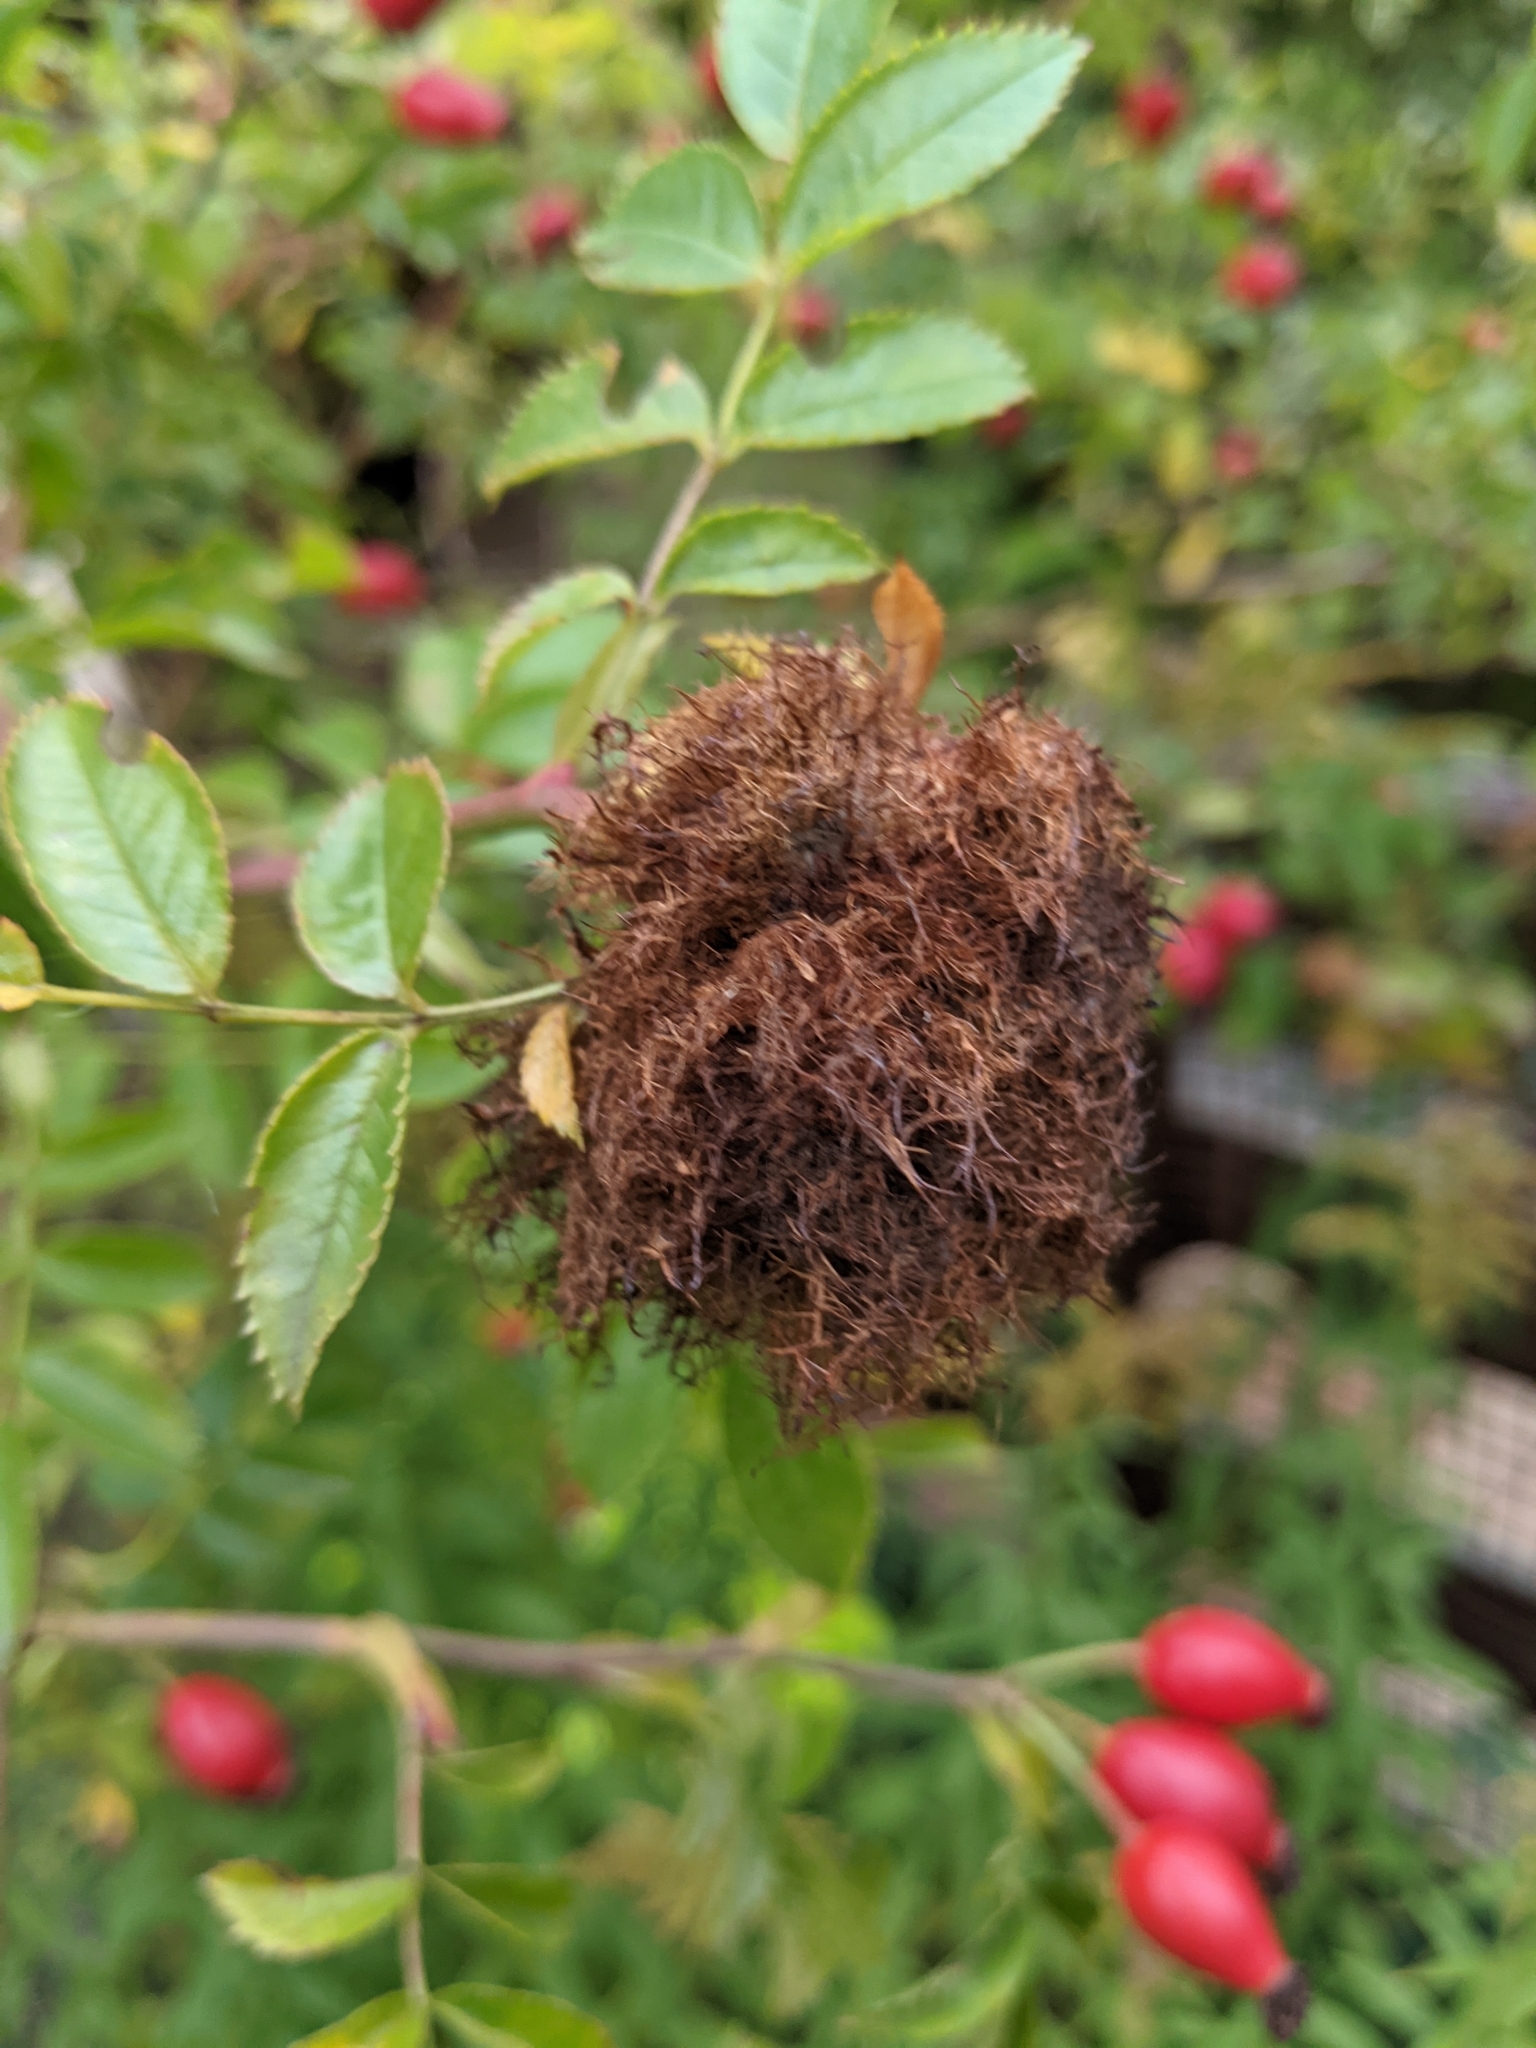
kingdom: Animalia
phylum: Arthropoda
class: Insecta
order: Hymenoptera
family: Cynipidae
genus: Diplolepis
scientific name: Diplolepis rosae
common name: Bedeguar gall
